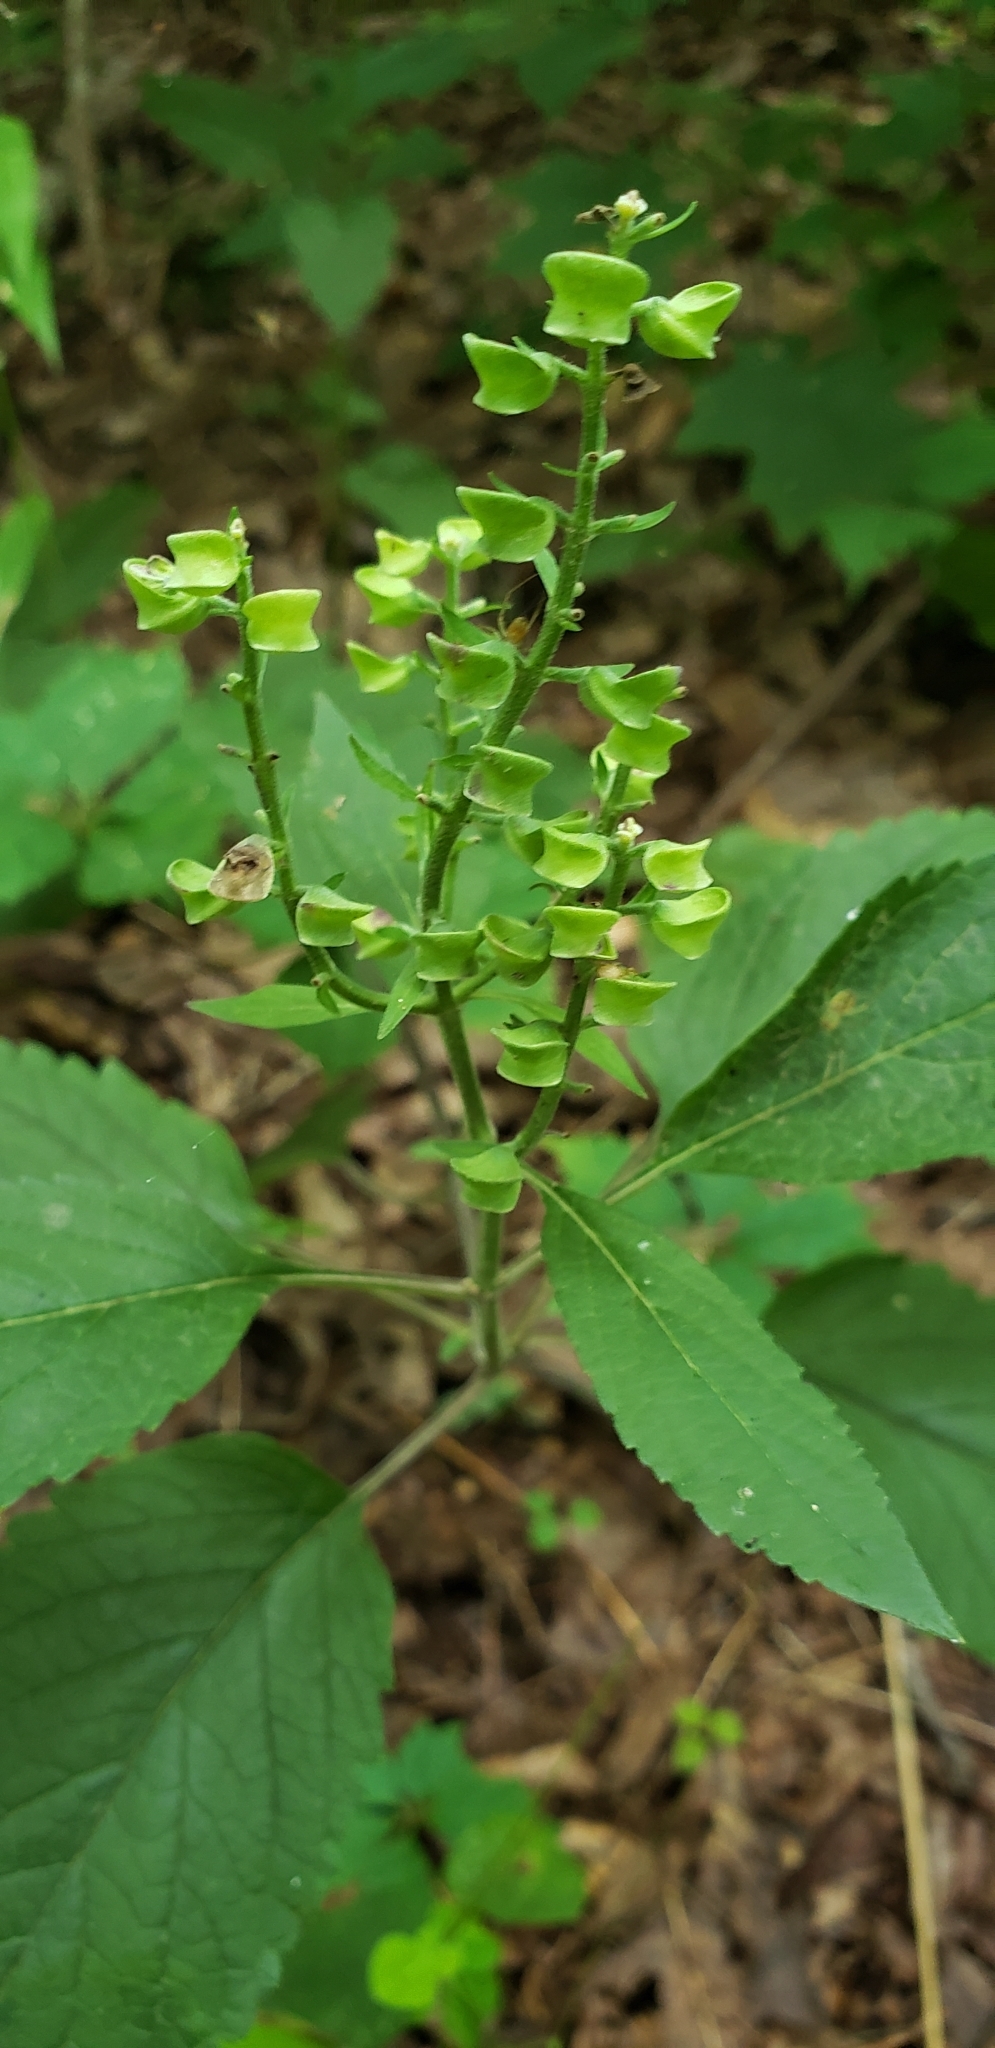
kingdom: Plantae
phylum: Tracheophyta
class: Magnoliopsida
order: Lamiales
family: Lamiaceae
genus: Scutellaria
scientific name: Scutellaria incana
